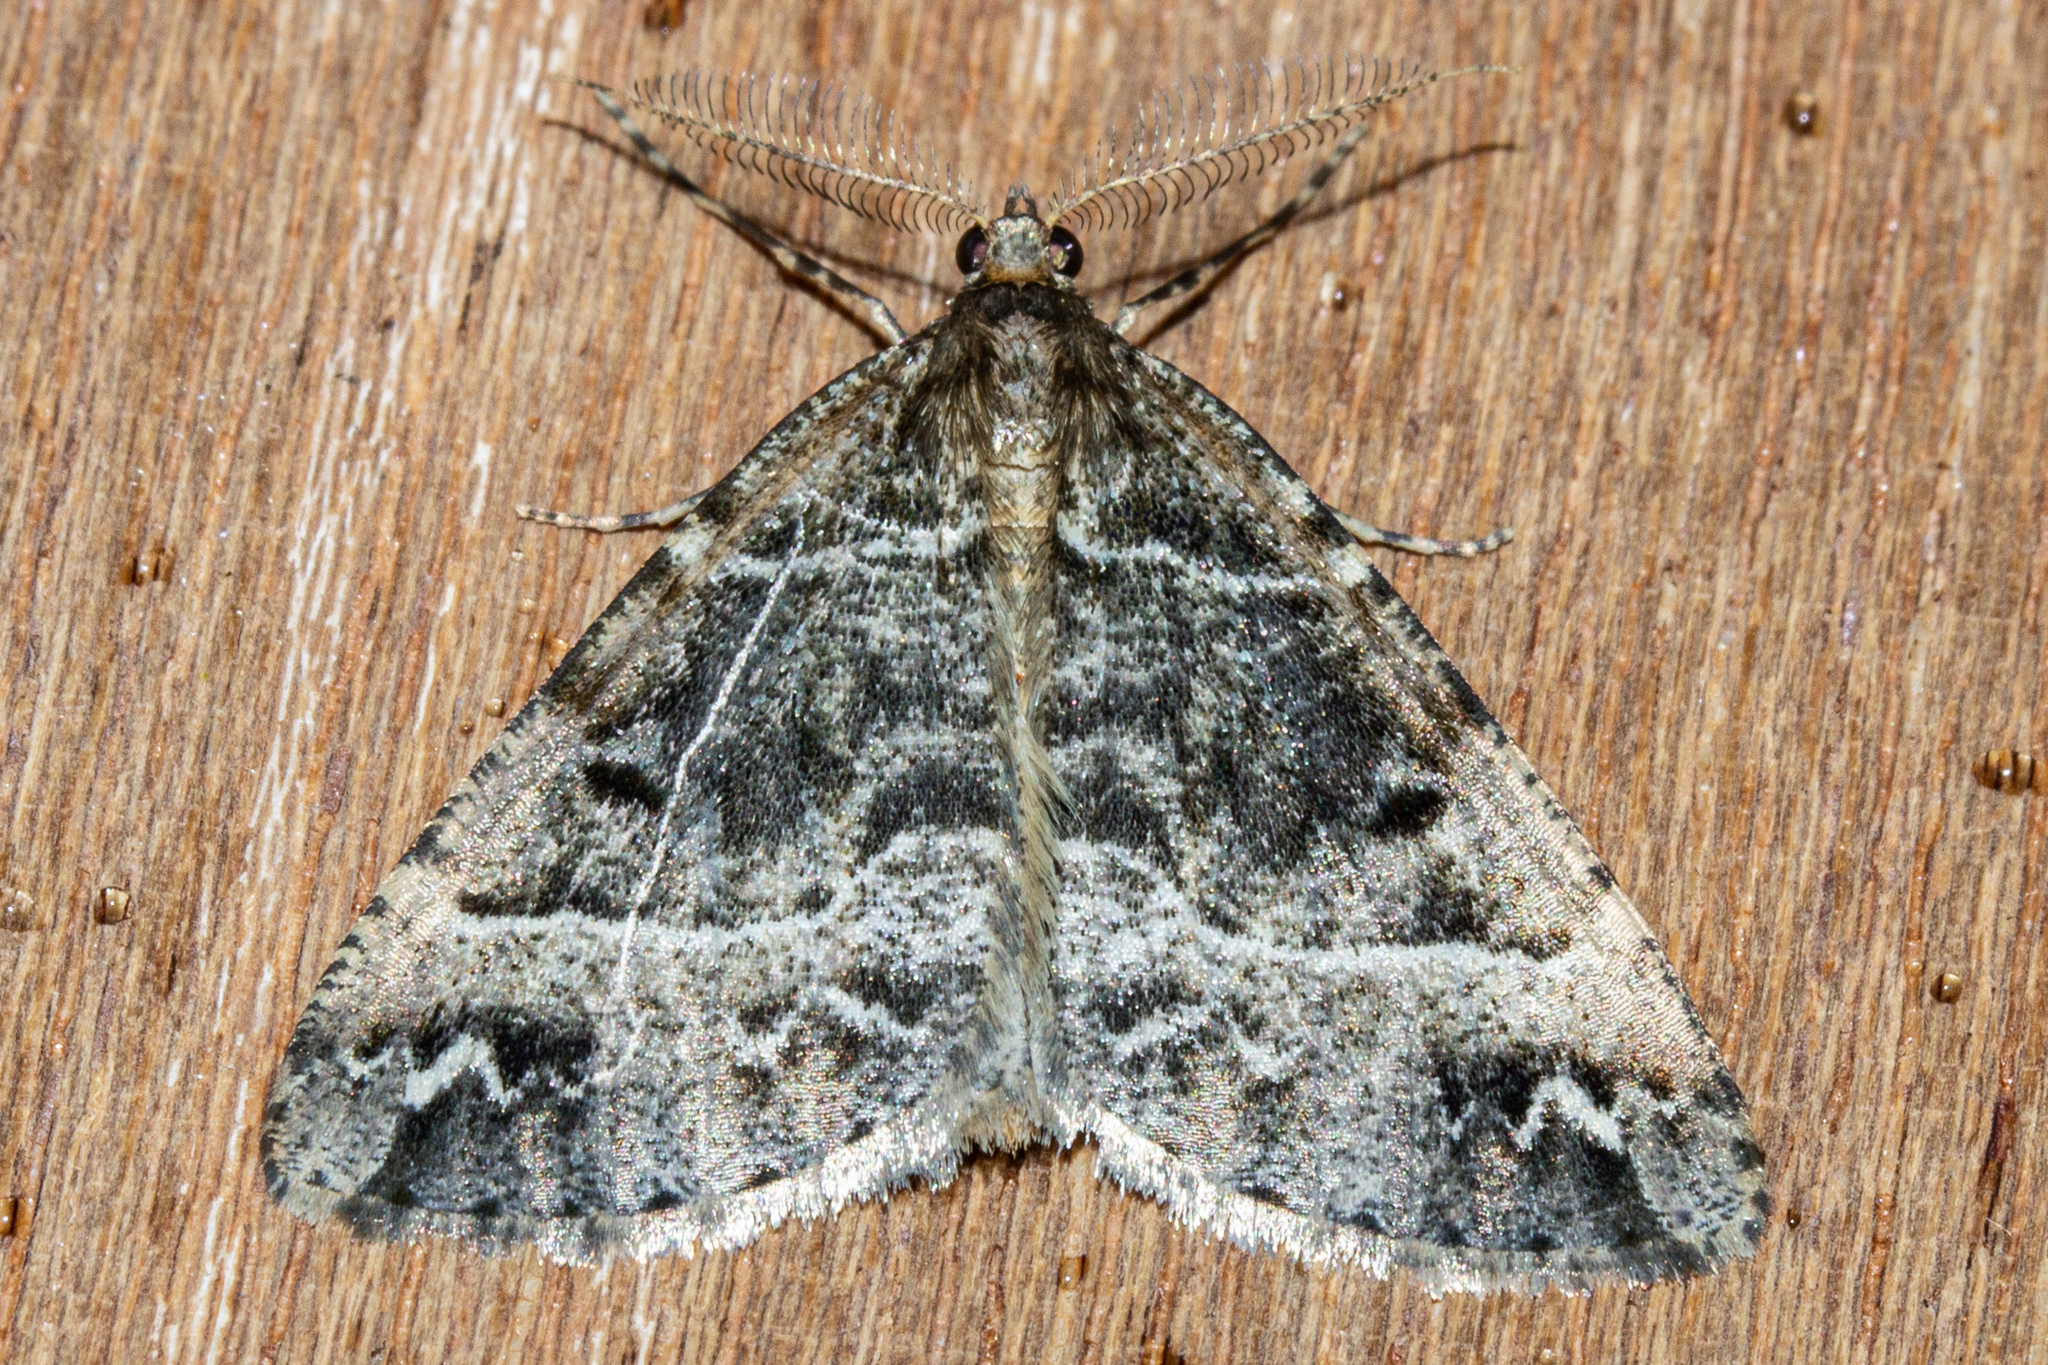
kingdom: Animalia
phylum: Arthropoda
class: Insecta
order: Lepidoptera
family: Geometridae
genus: Pseudocoremia
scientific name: Pseudocoremia melinata
